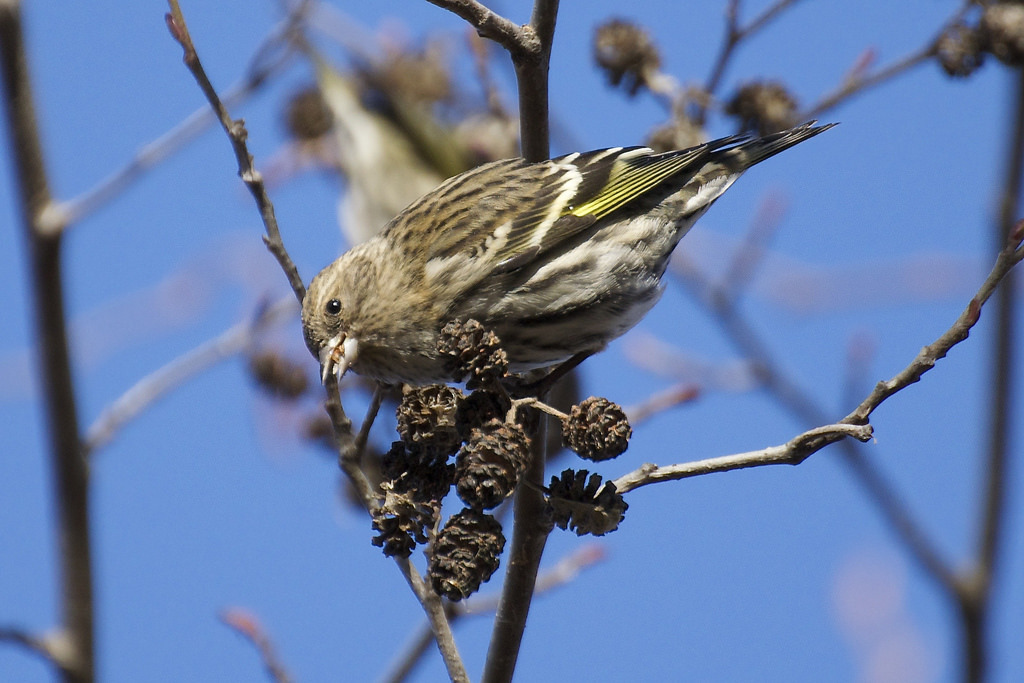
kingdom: Animalia
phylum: Chordata
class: Aves
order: Passeriformes
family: Fringillidae
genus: Spinus
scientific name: Spinus pinus
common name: Pine siskin
